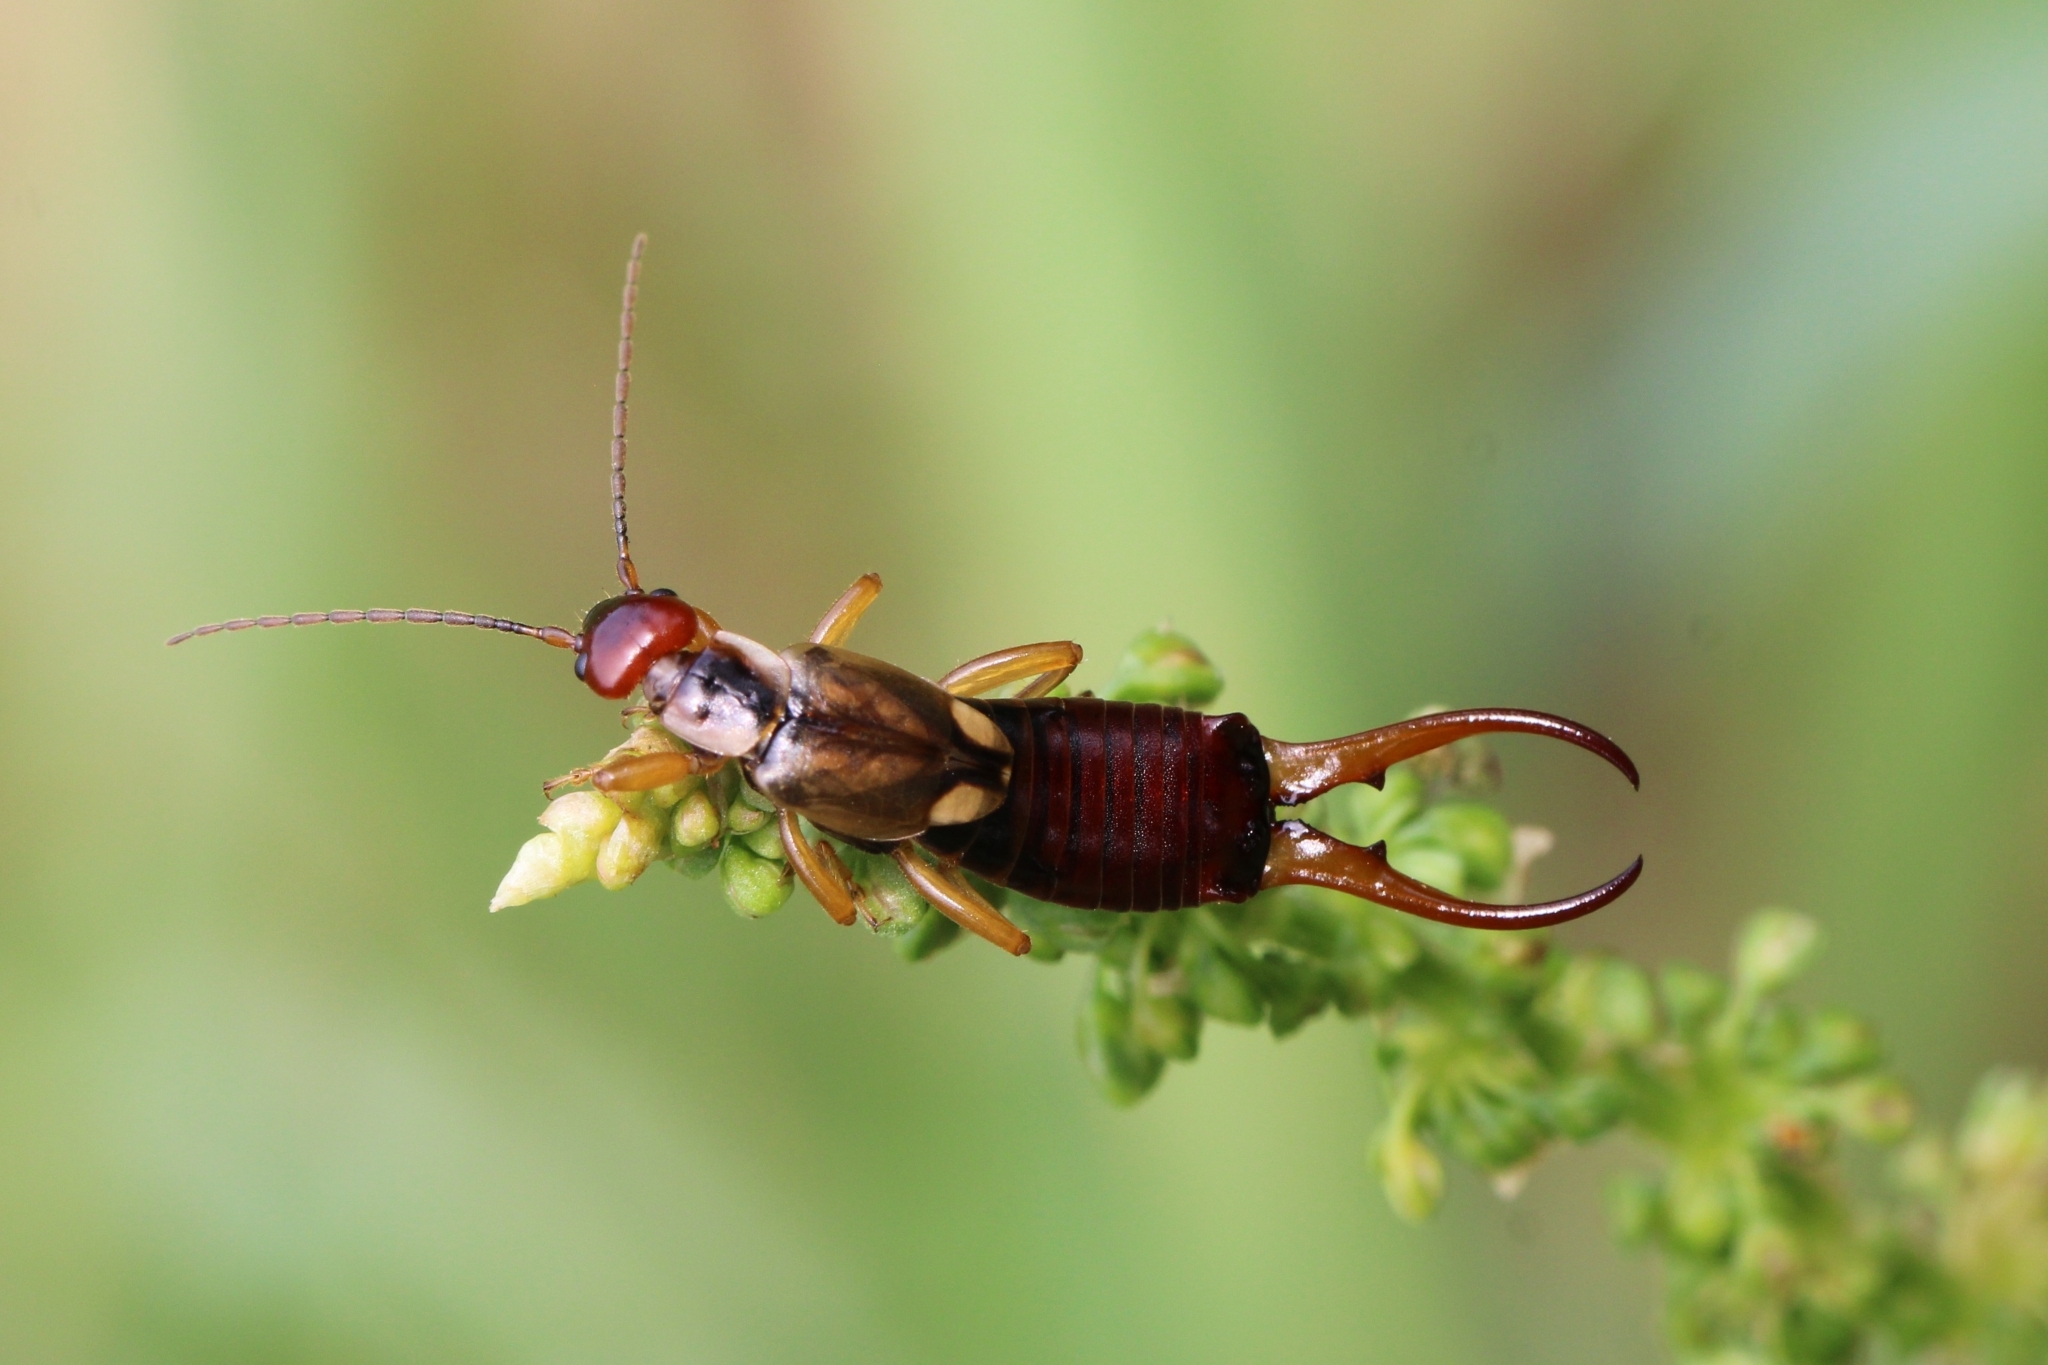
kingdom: Animalia
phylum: Arthropoda
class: Insecta
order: Dermaptera
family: Forficulidae
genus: Forficula
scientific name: Forficula
